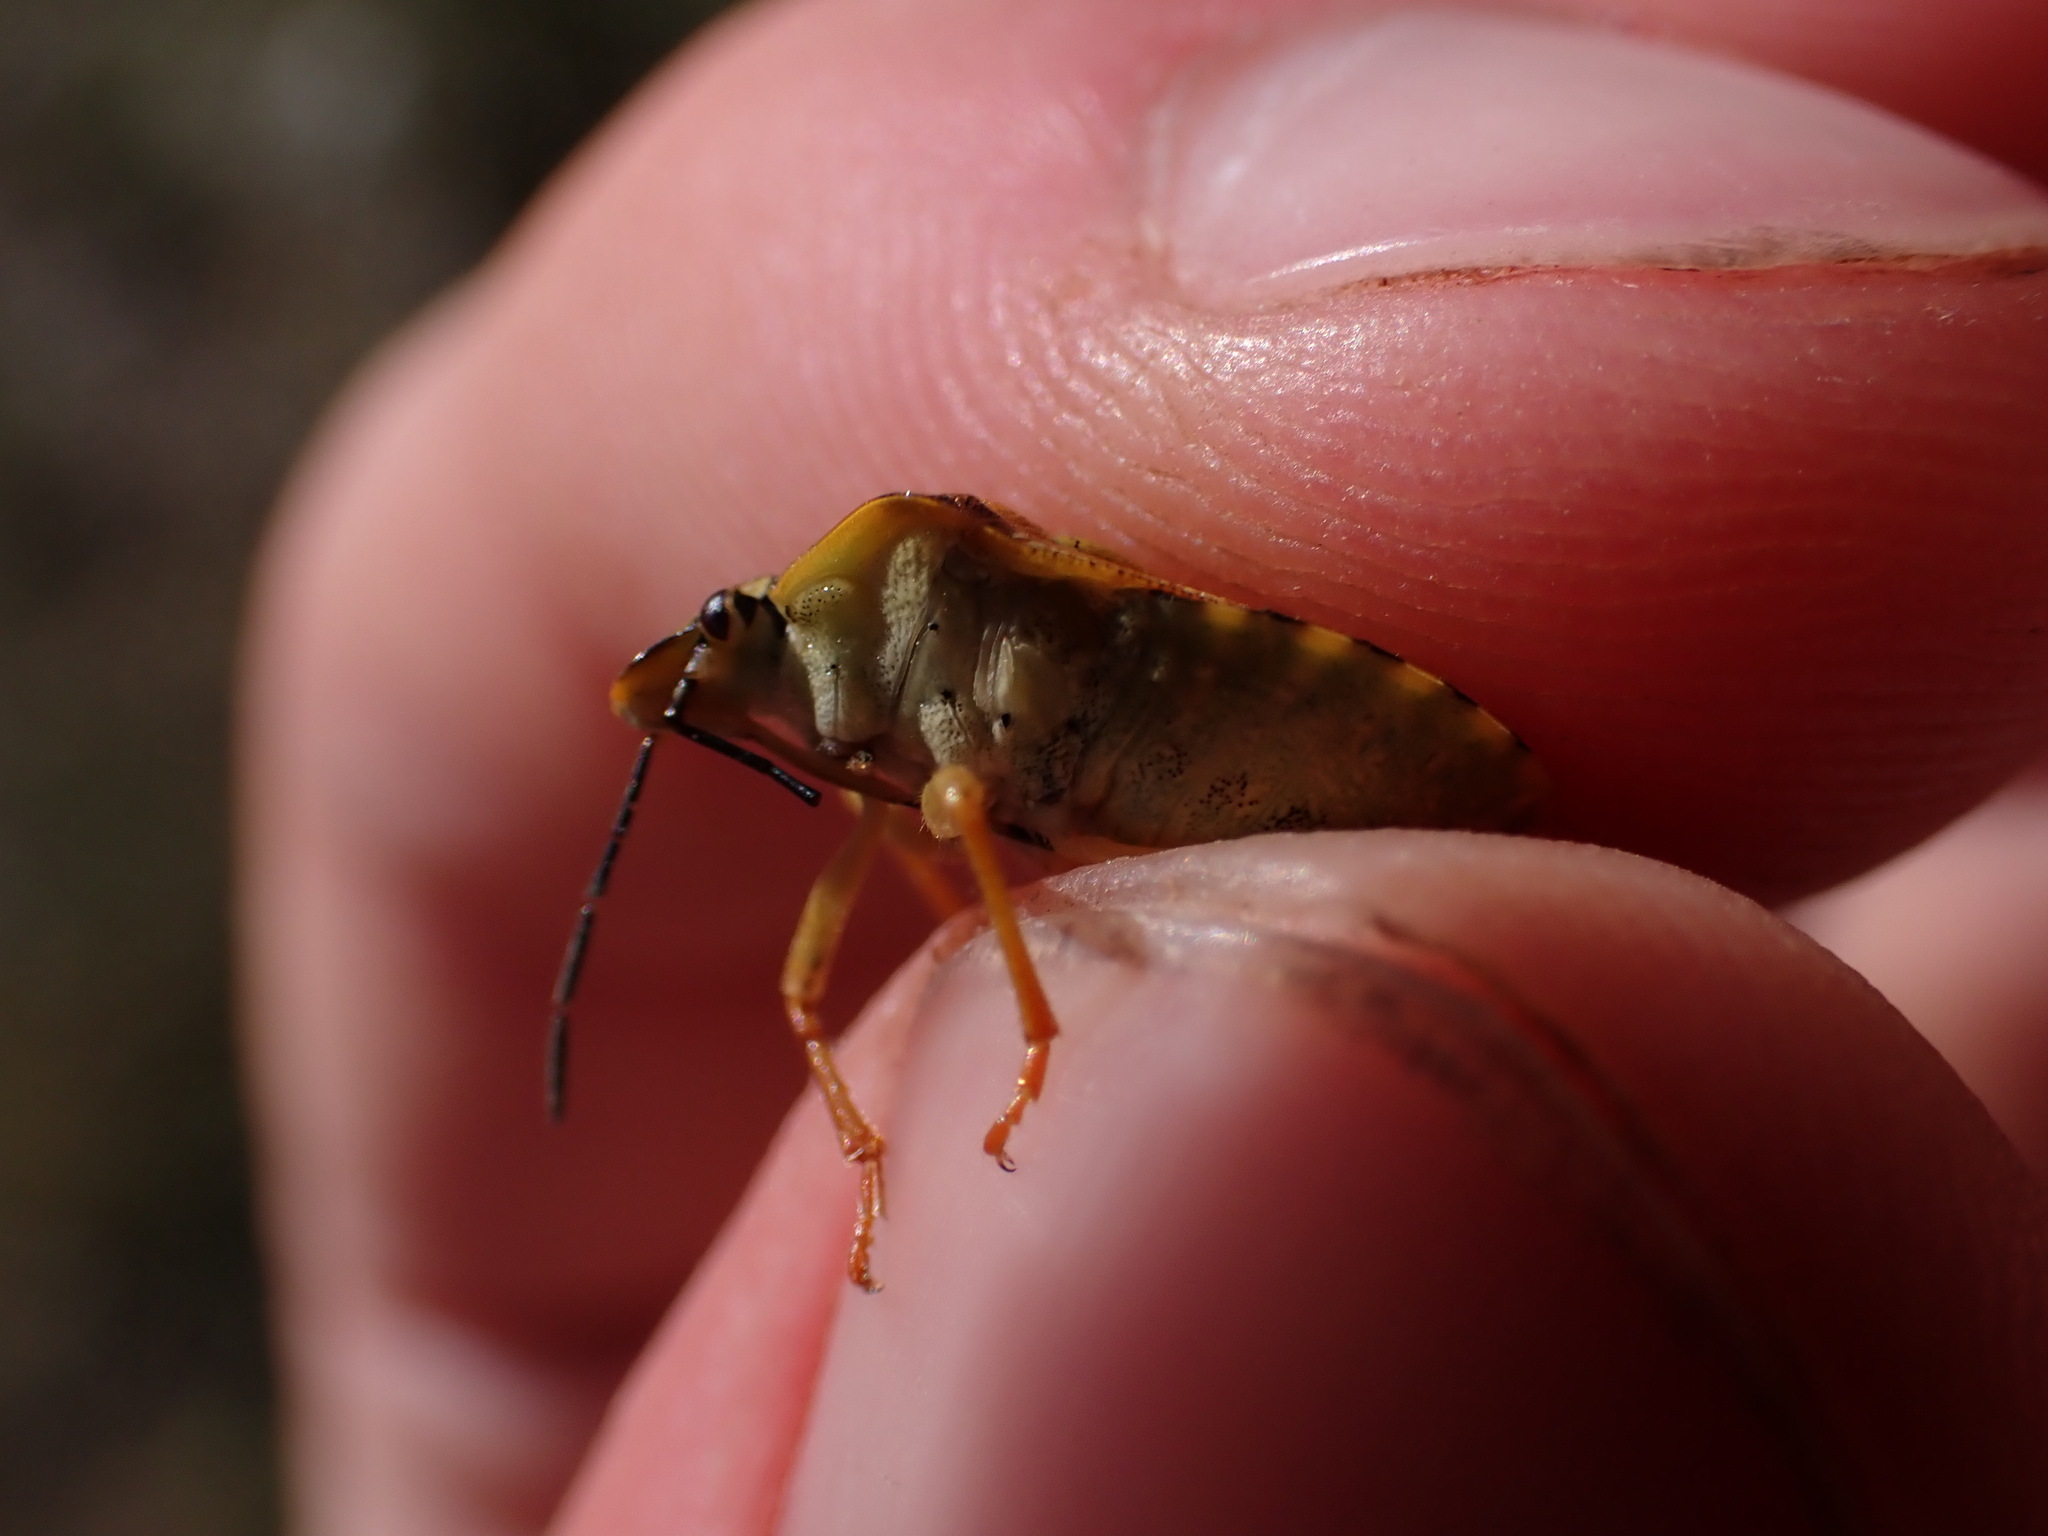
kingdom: Animalia
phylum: Arthropoda
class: Insecta
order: Hemiptera
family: Pentatomidae
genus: Carpocoris
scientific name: Carpocoris purpureipennis
